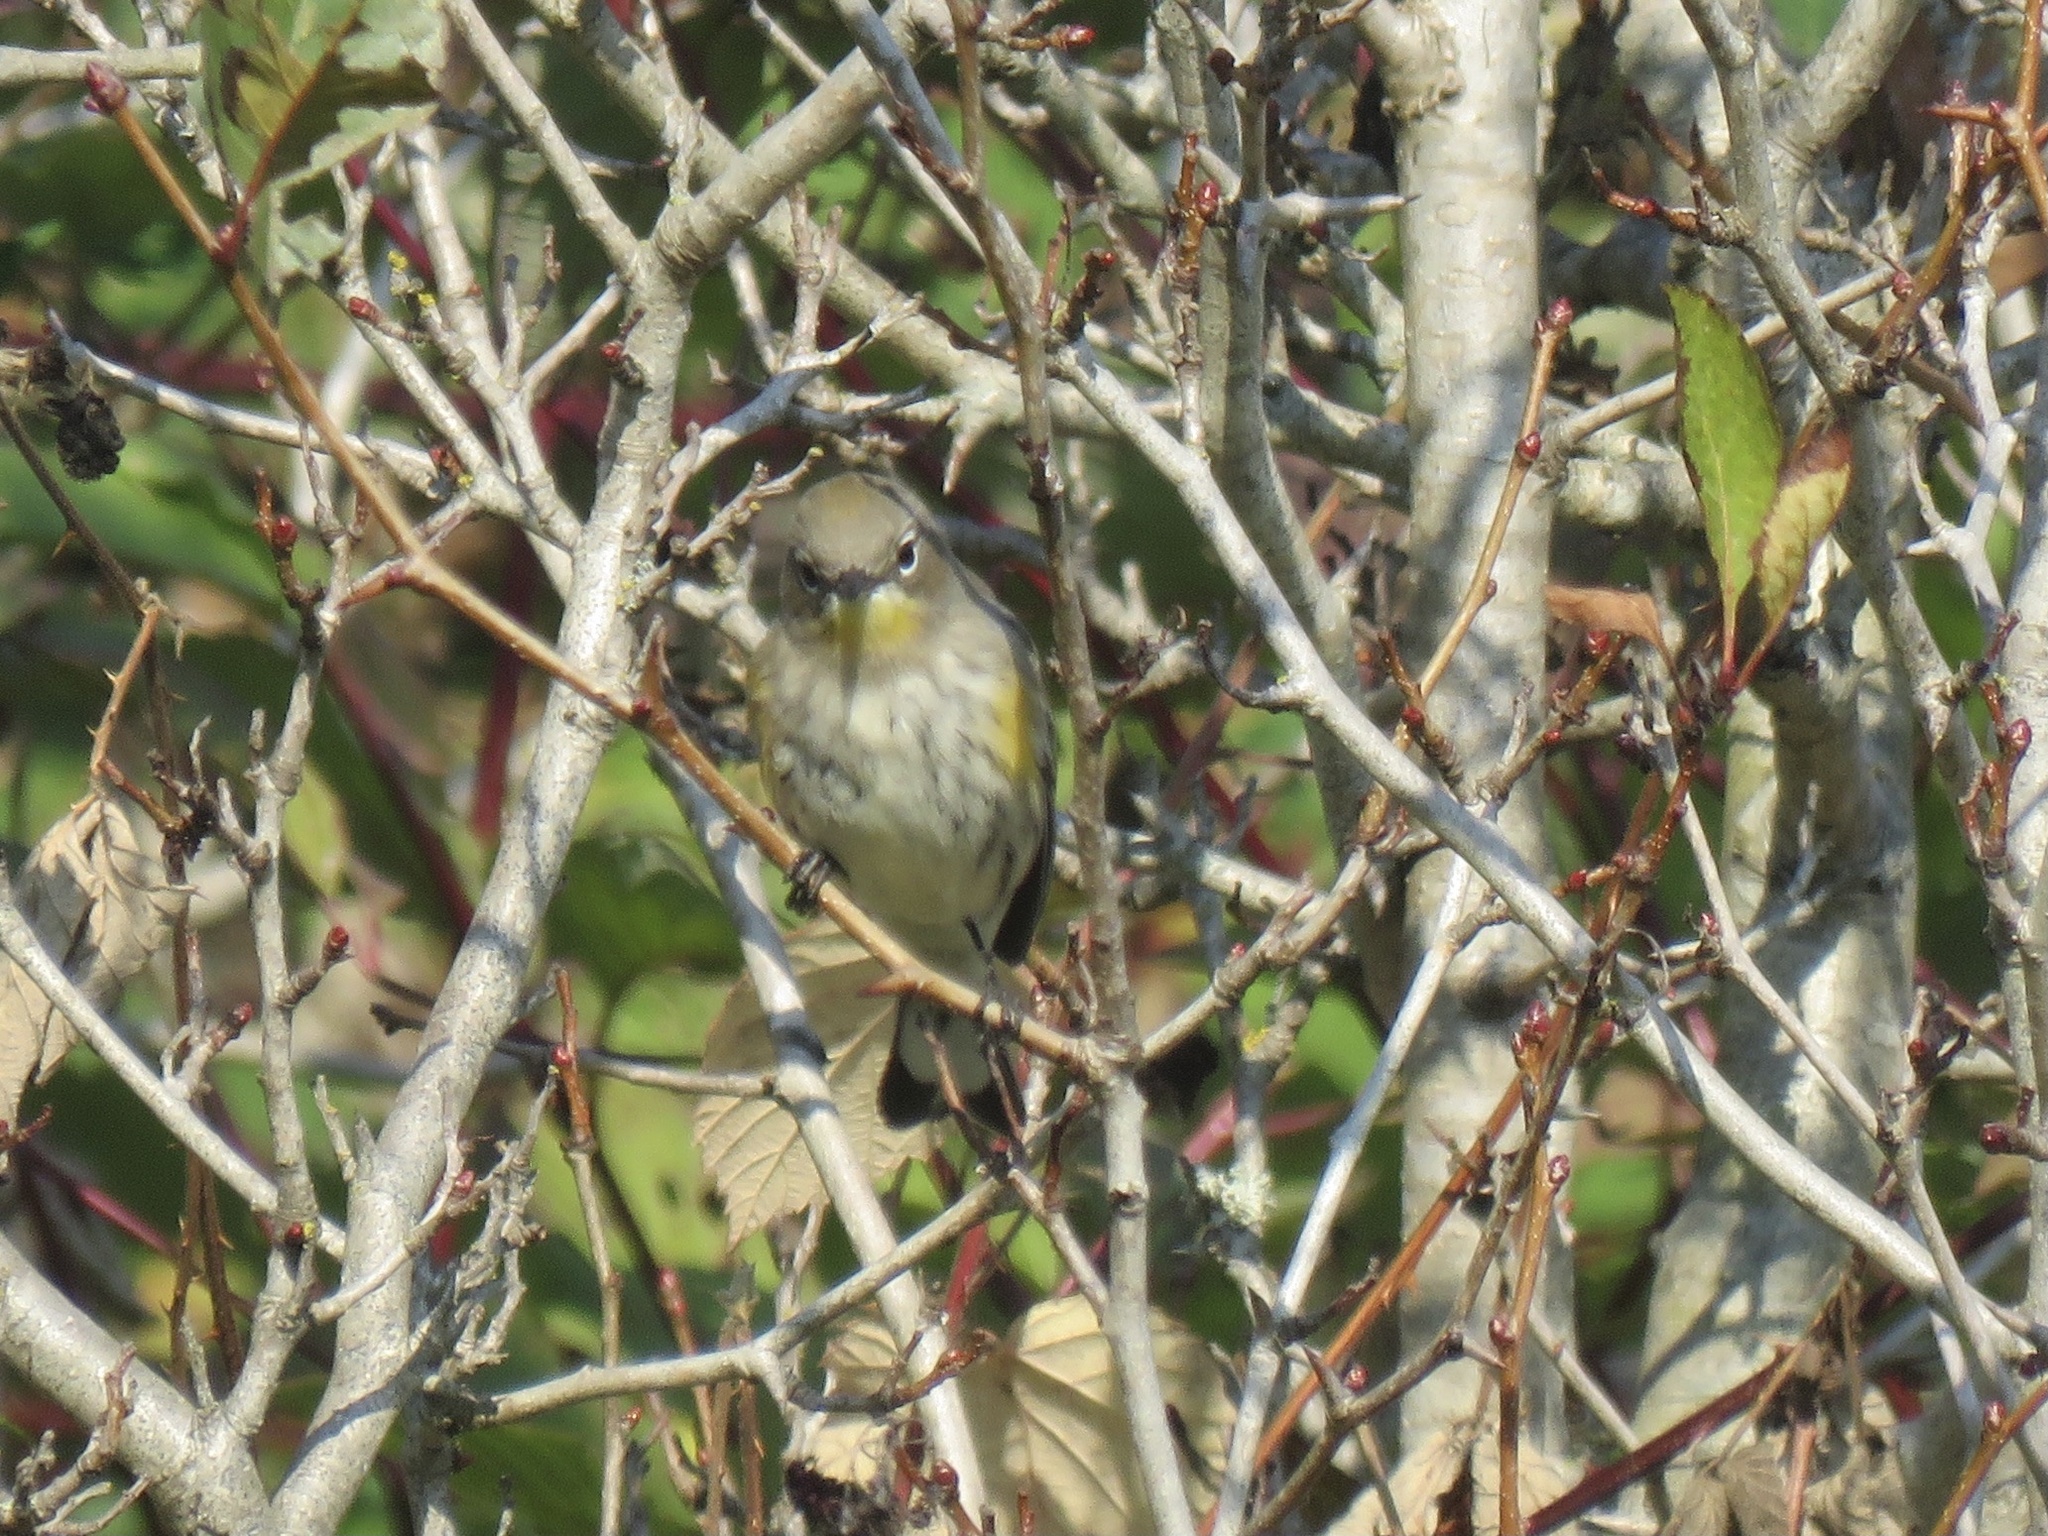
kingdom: Animalia
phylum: Chordata
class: Aves
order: Passeriformes
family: Parulidae
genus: Setophaga
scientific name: Setophaga coronata
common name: Myrtle warbler
